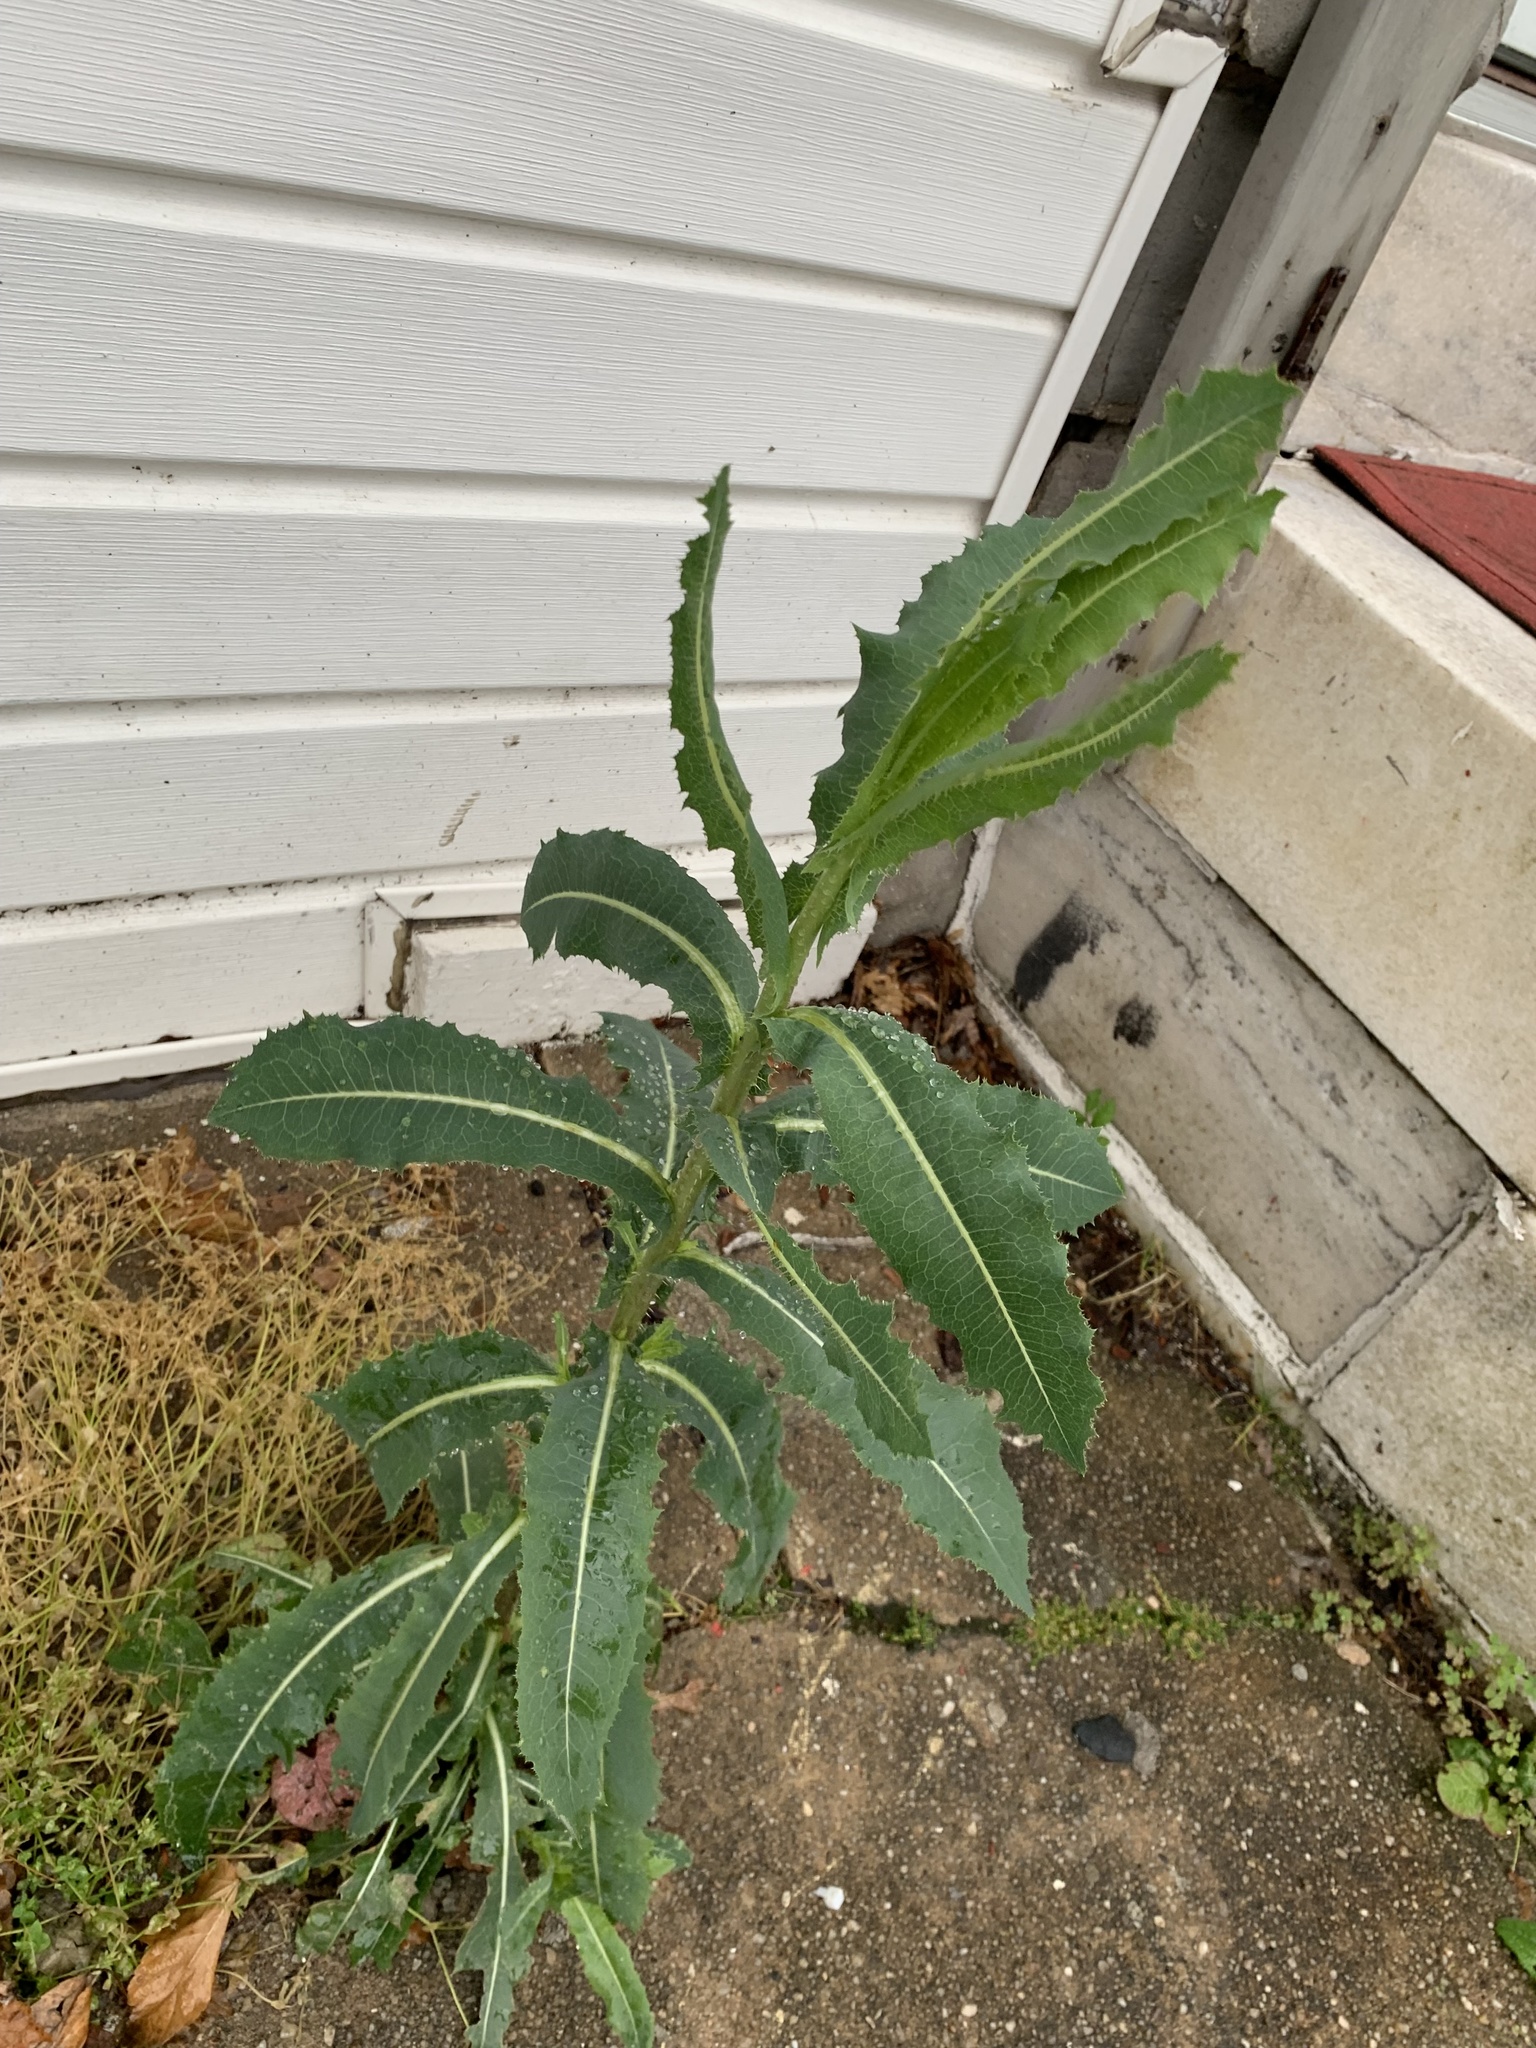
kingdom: Plantae
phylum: Tracheophyta
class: Magnoliopsida
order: Asterales
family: Asteraceae
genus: Lactuca
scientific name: Lactuca serriola
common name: Prickly lettuce
